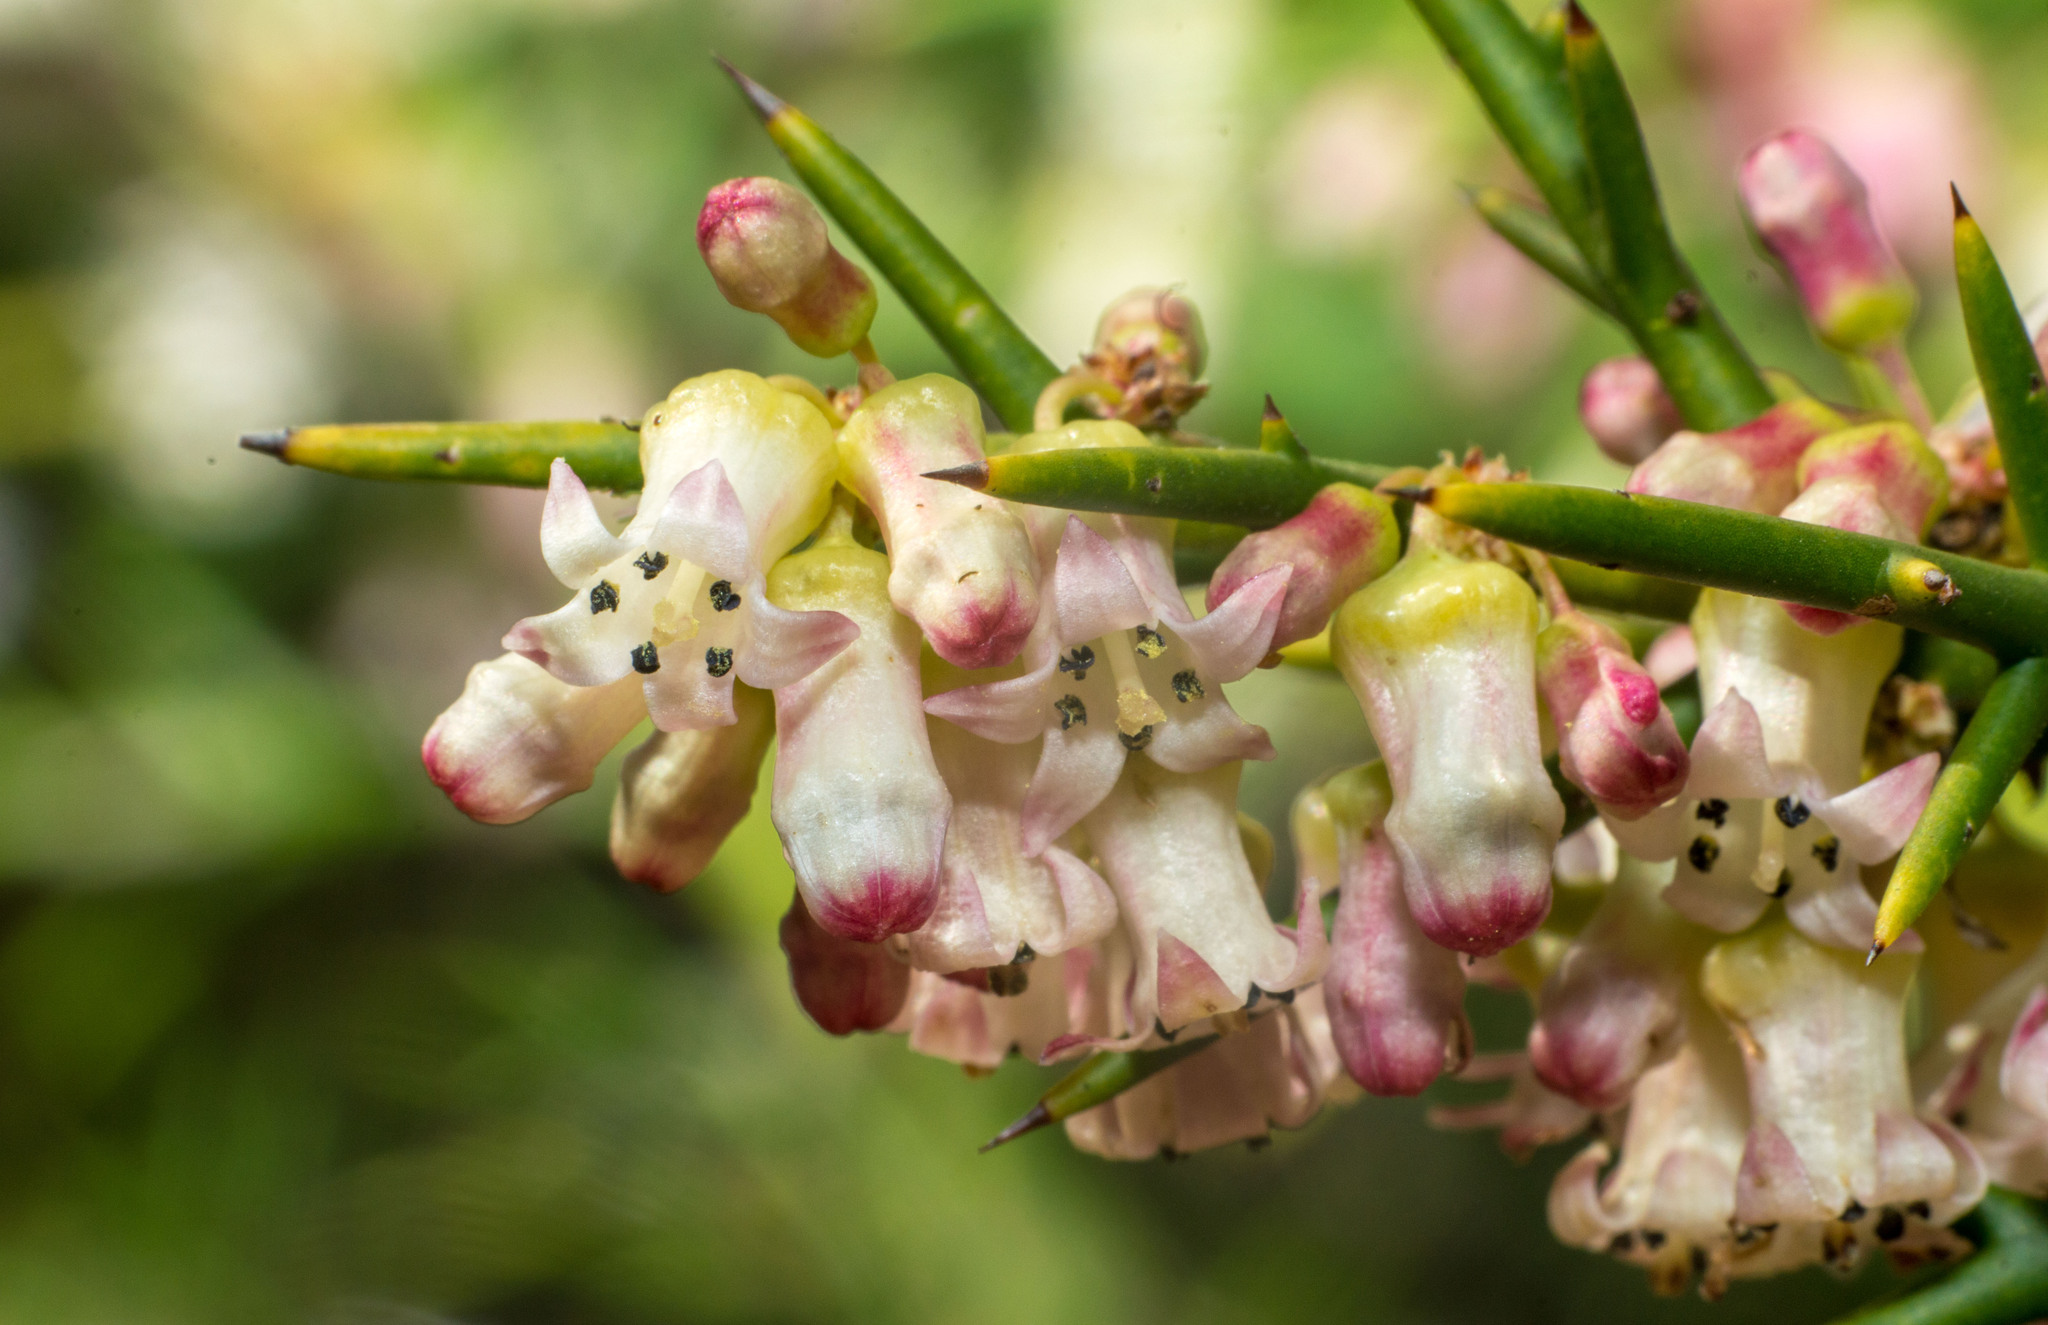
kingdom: Plantae
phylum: Tracheophyta
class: Magnoliopsida
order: Rosales
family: Rhamnaceae
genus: Colletia
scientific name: Colletia spinosissima
